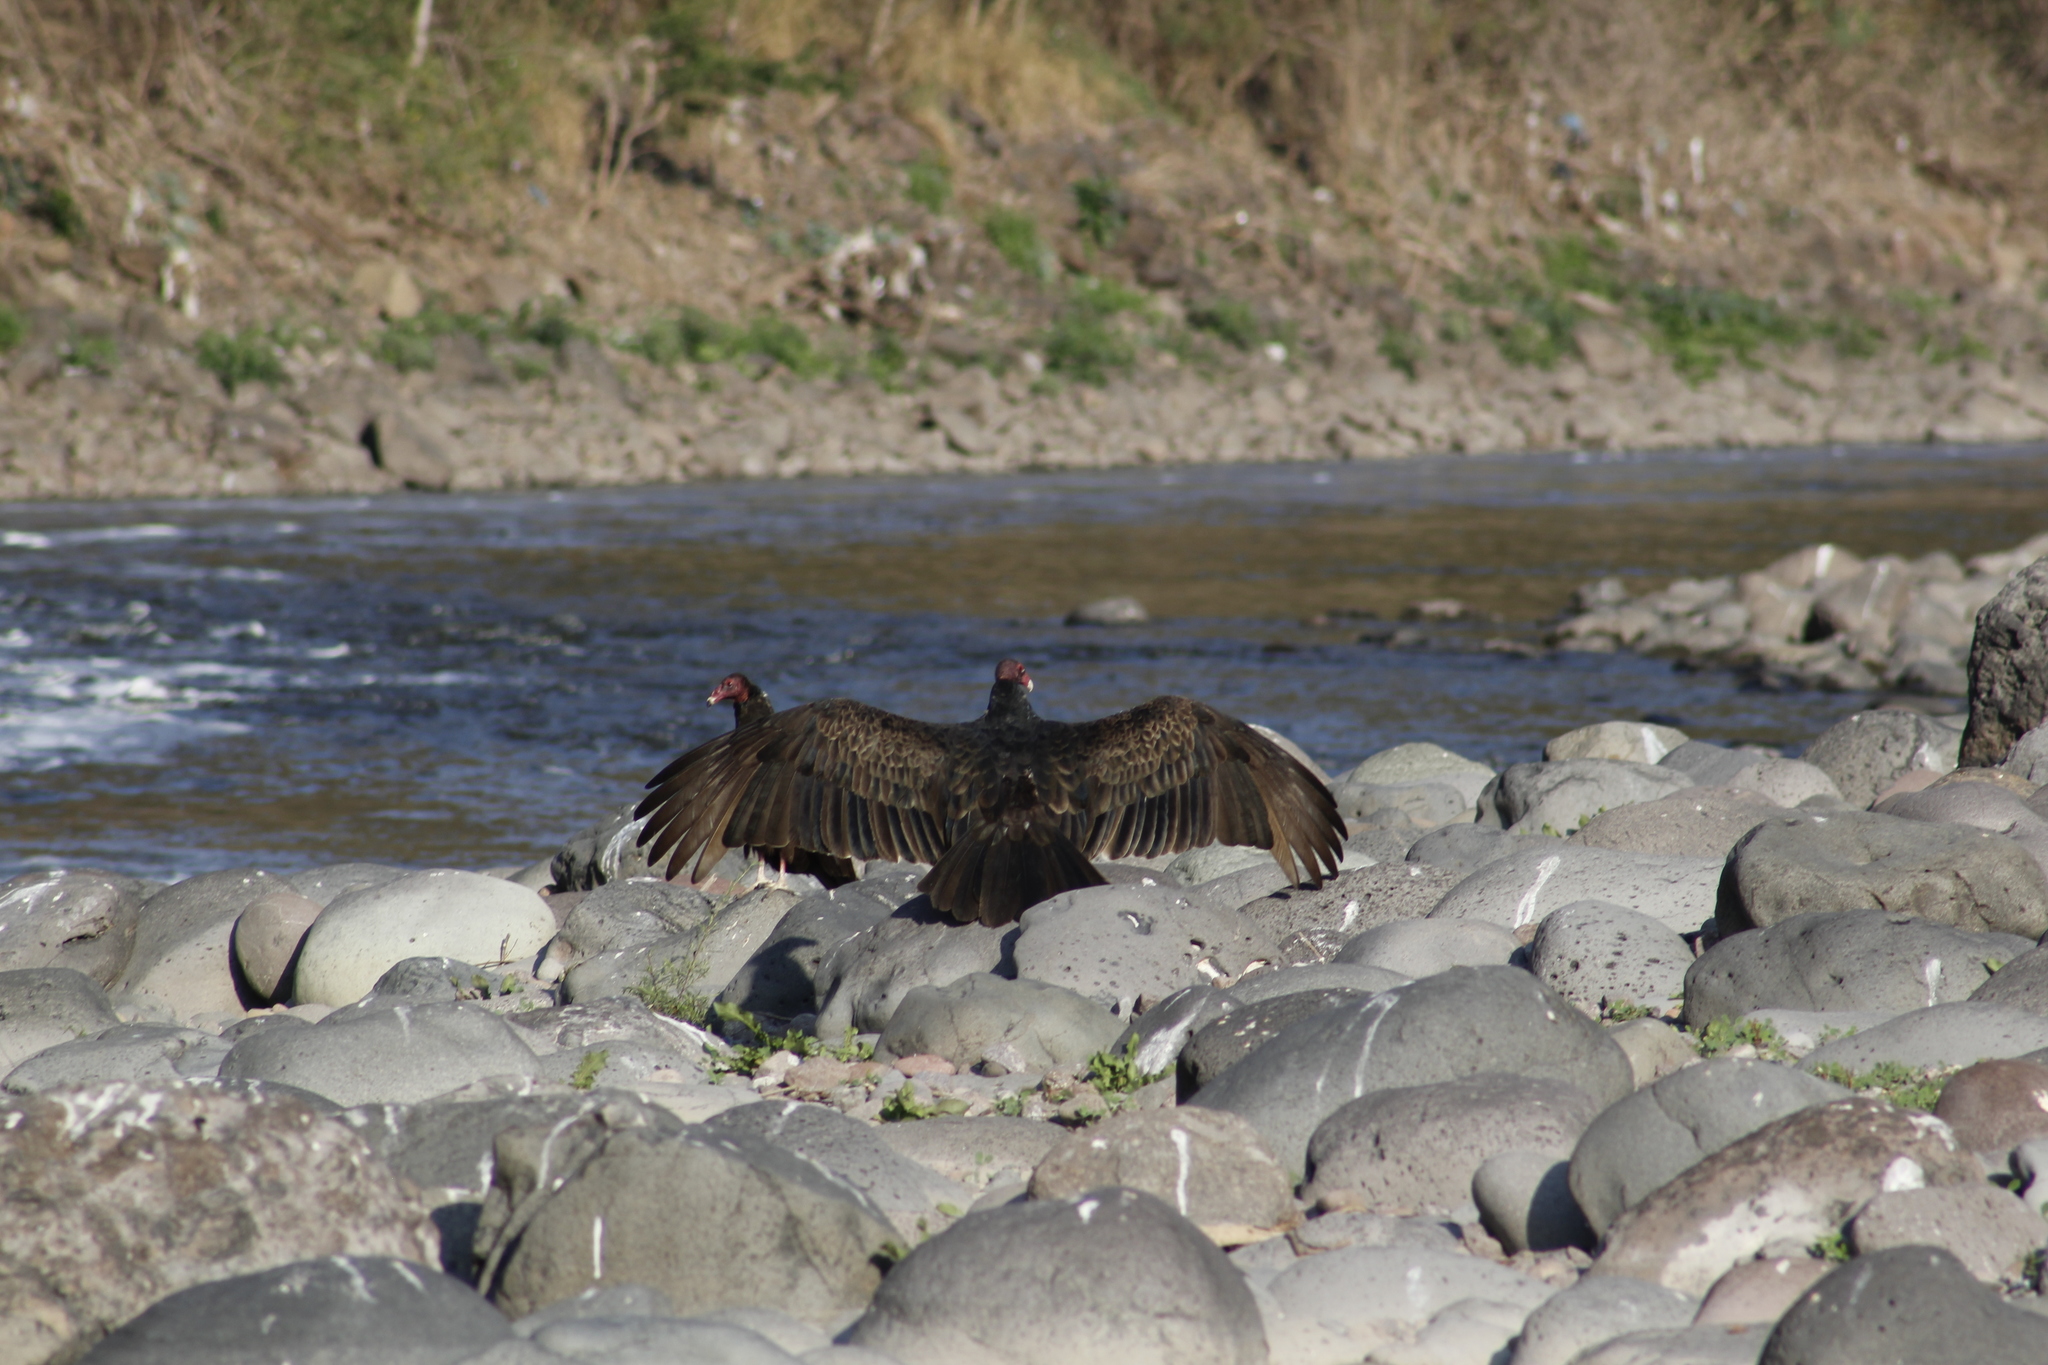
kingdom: Animalia
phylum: Chordata
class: Aves
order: Accipitriformes
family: Cathartidae
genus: Cathartes
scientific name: Cathartes aura
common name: Turkey vulture
